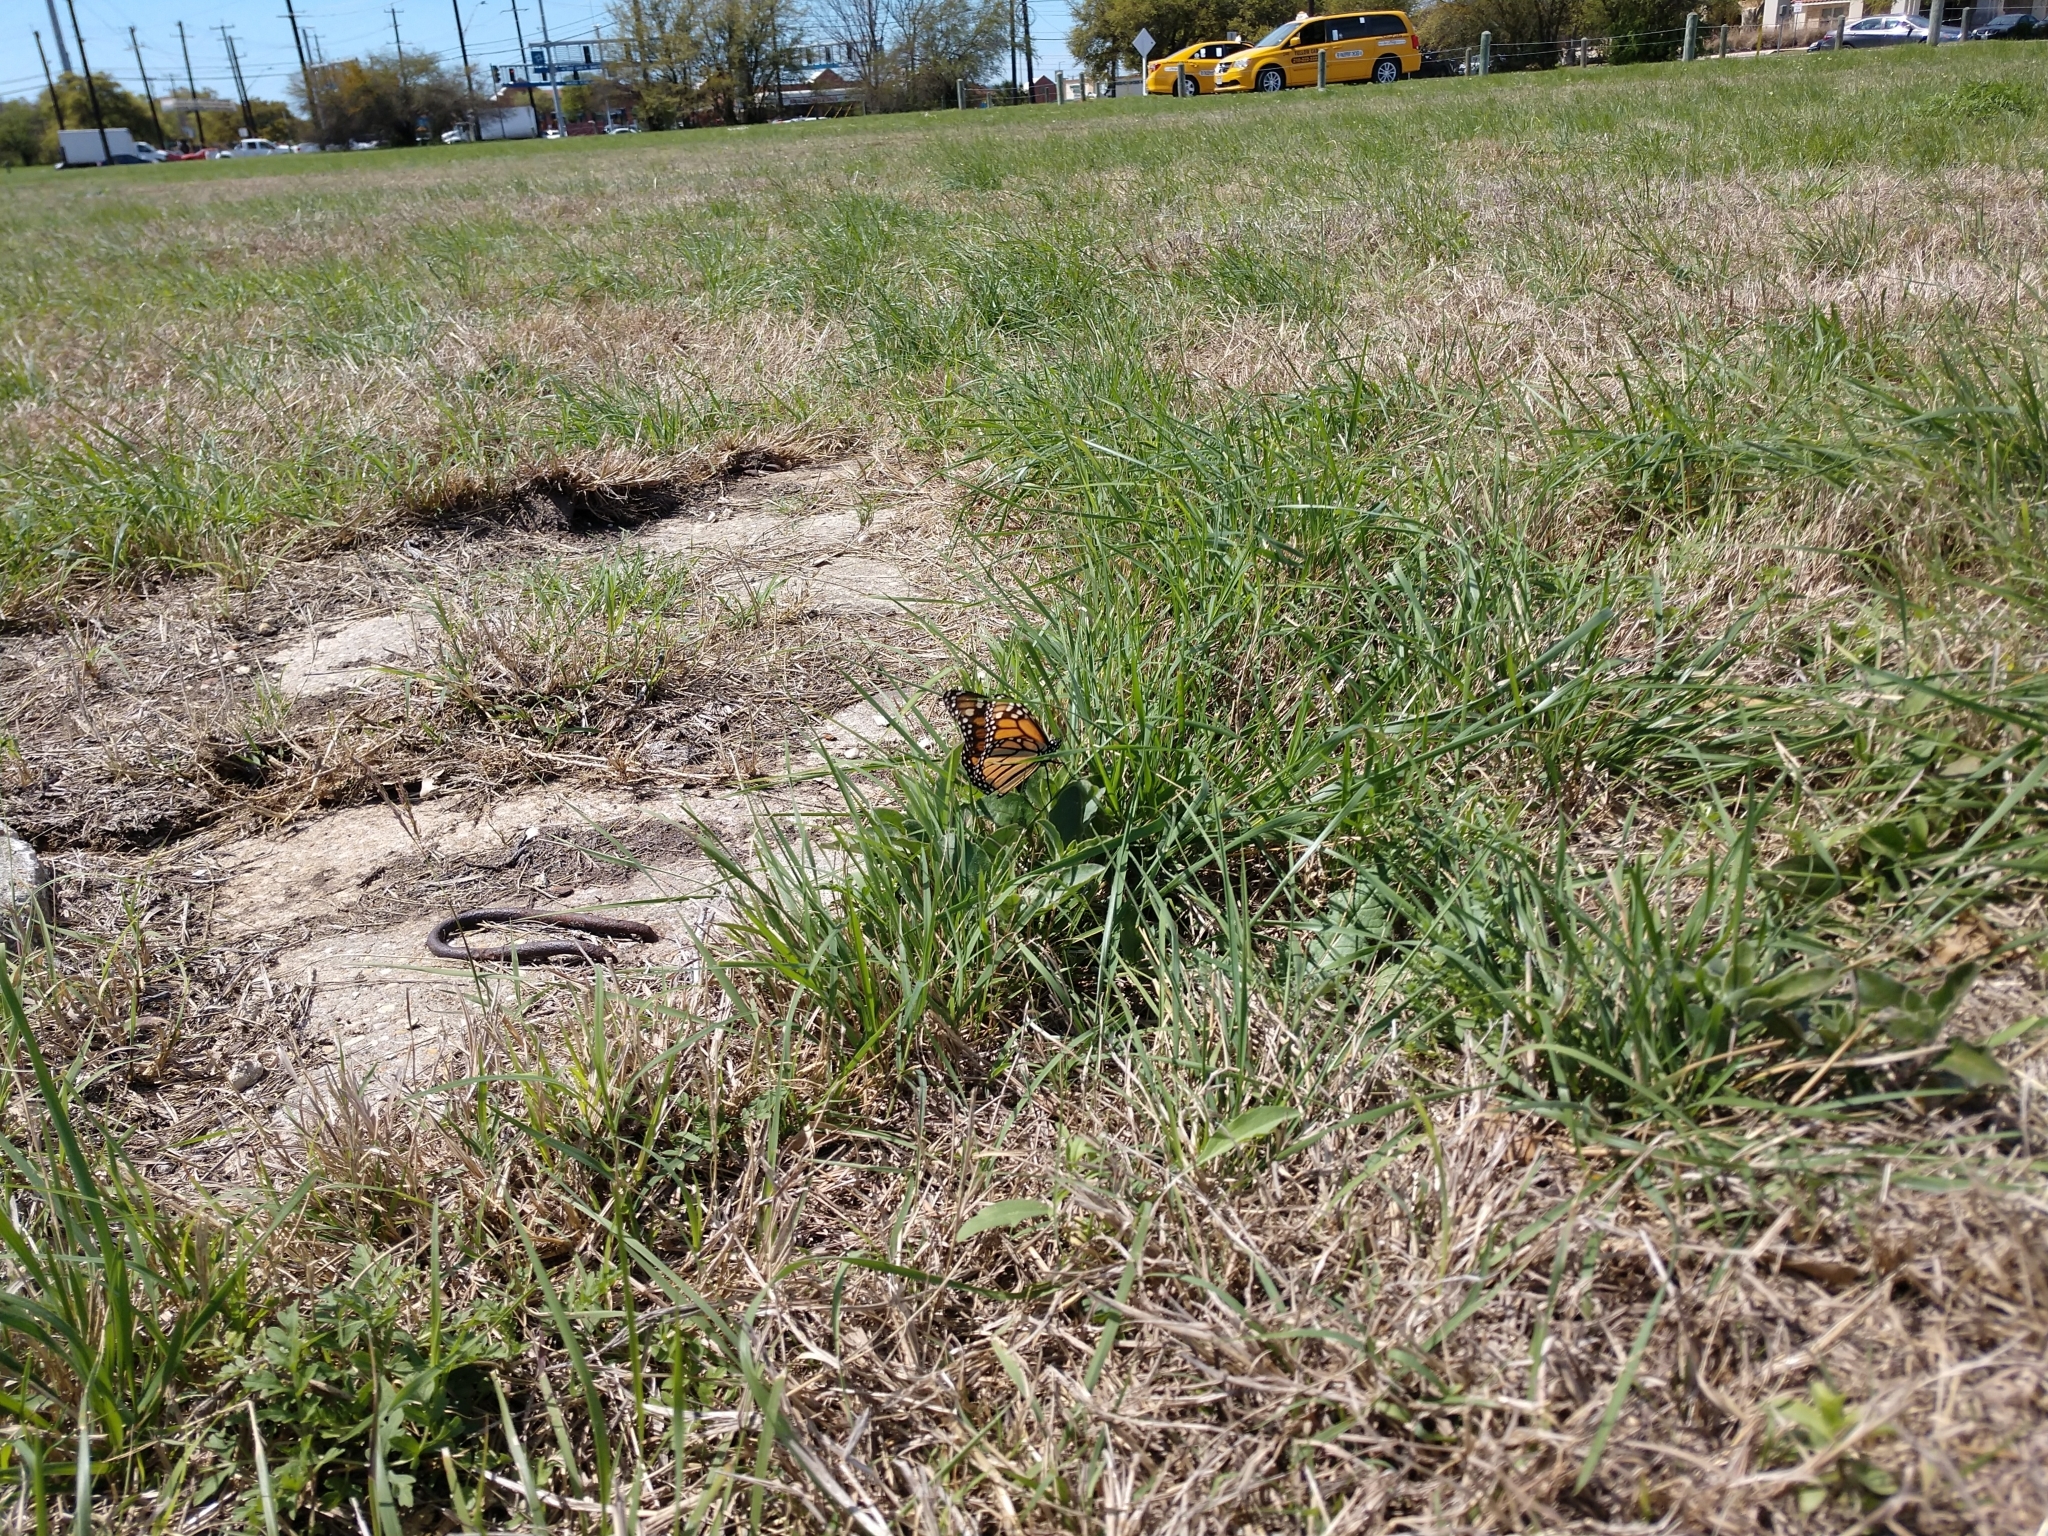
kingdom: Animalia
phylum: Arthropoda
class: Insecta
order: Lepidoptera
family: Nymphalidae
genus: Danaus
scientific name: Danaus plexippus
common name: Monarch
